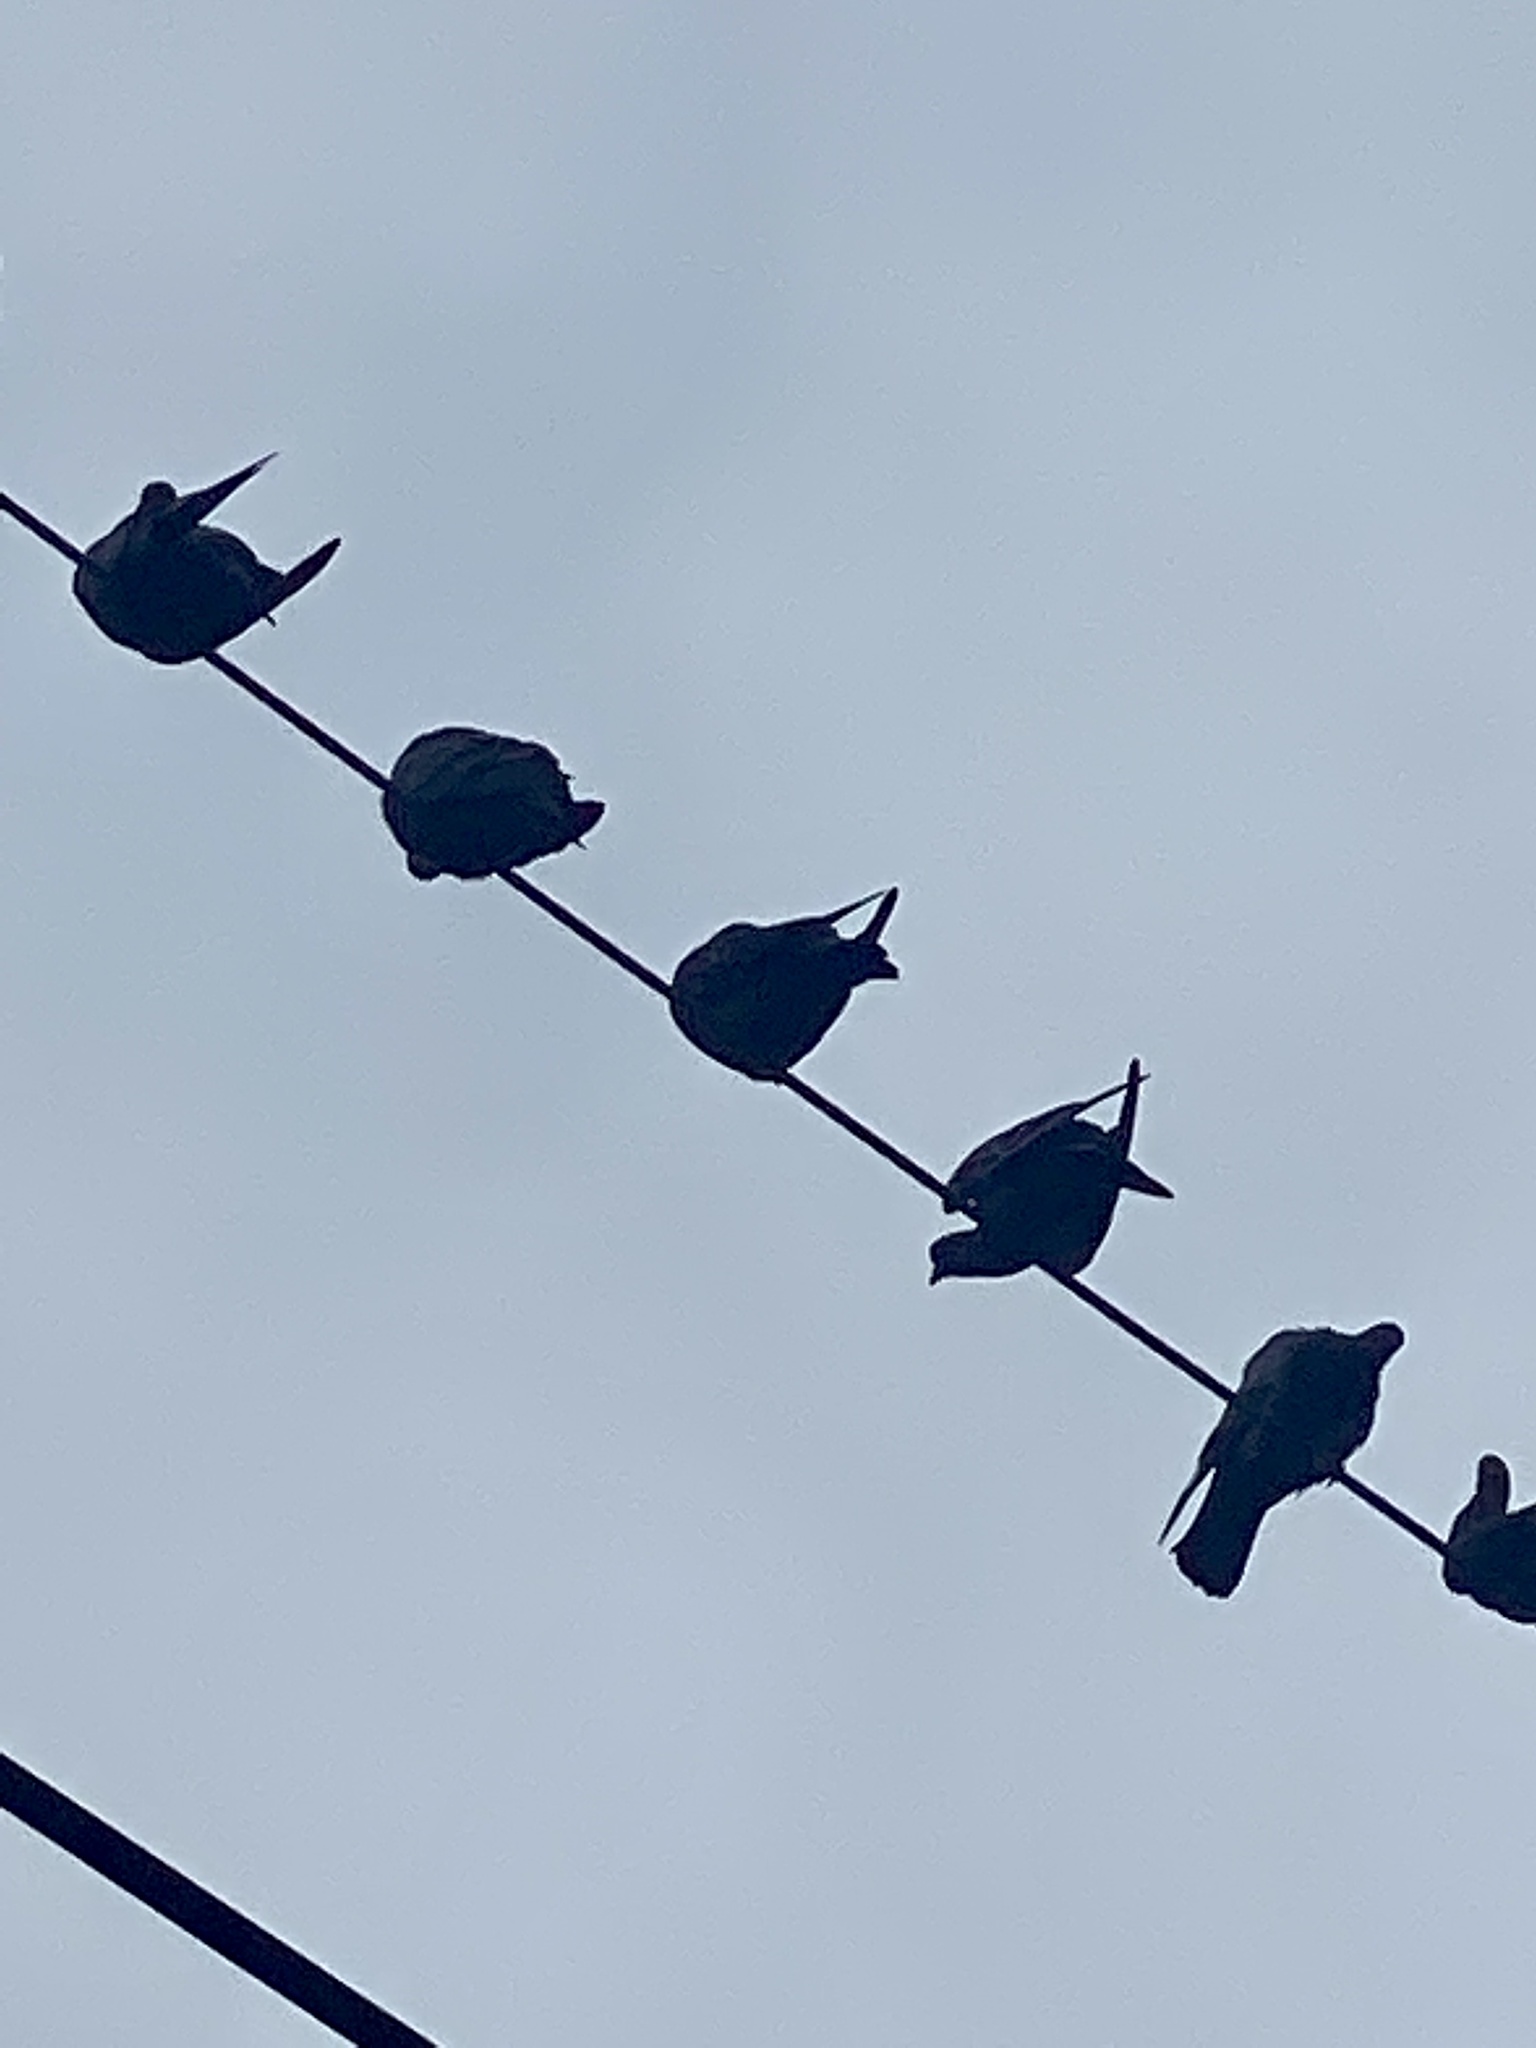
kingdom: Animalia
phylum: Chordata
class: Aves
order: Columbiformes
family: Columbidae
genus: Columba
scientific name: Columba livia
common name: Rock pigeon
